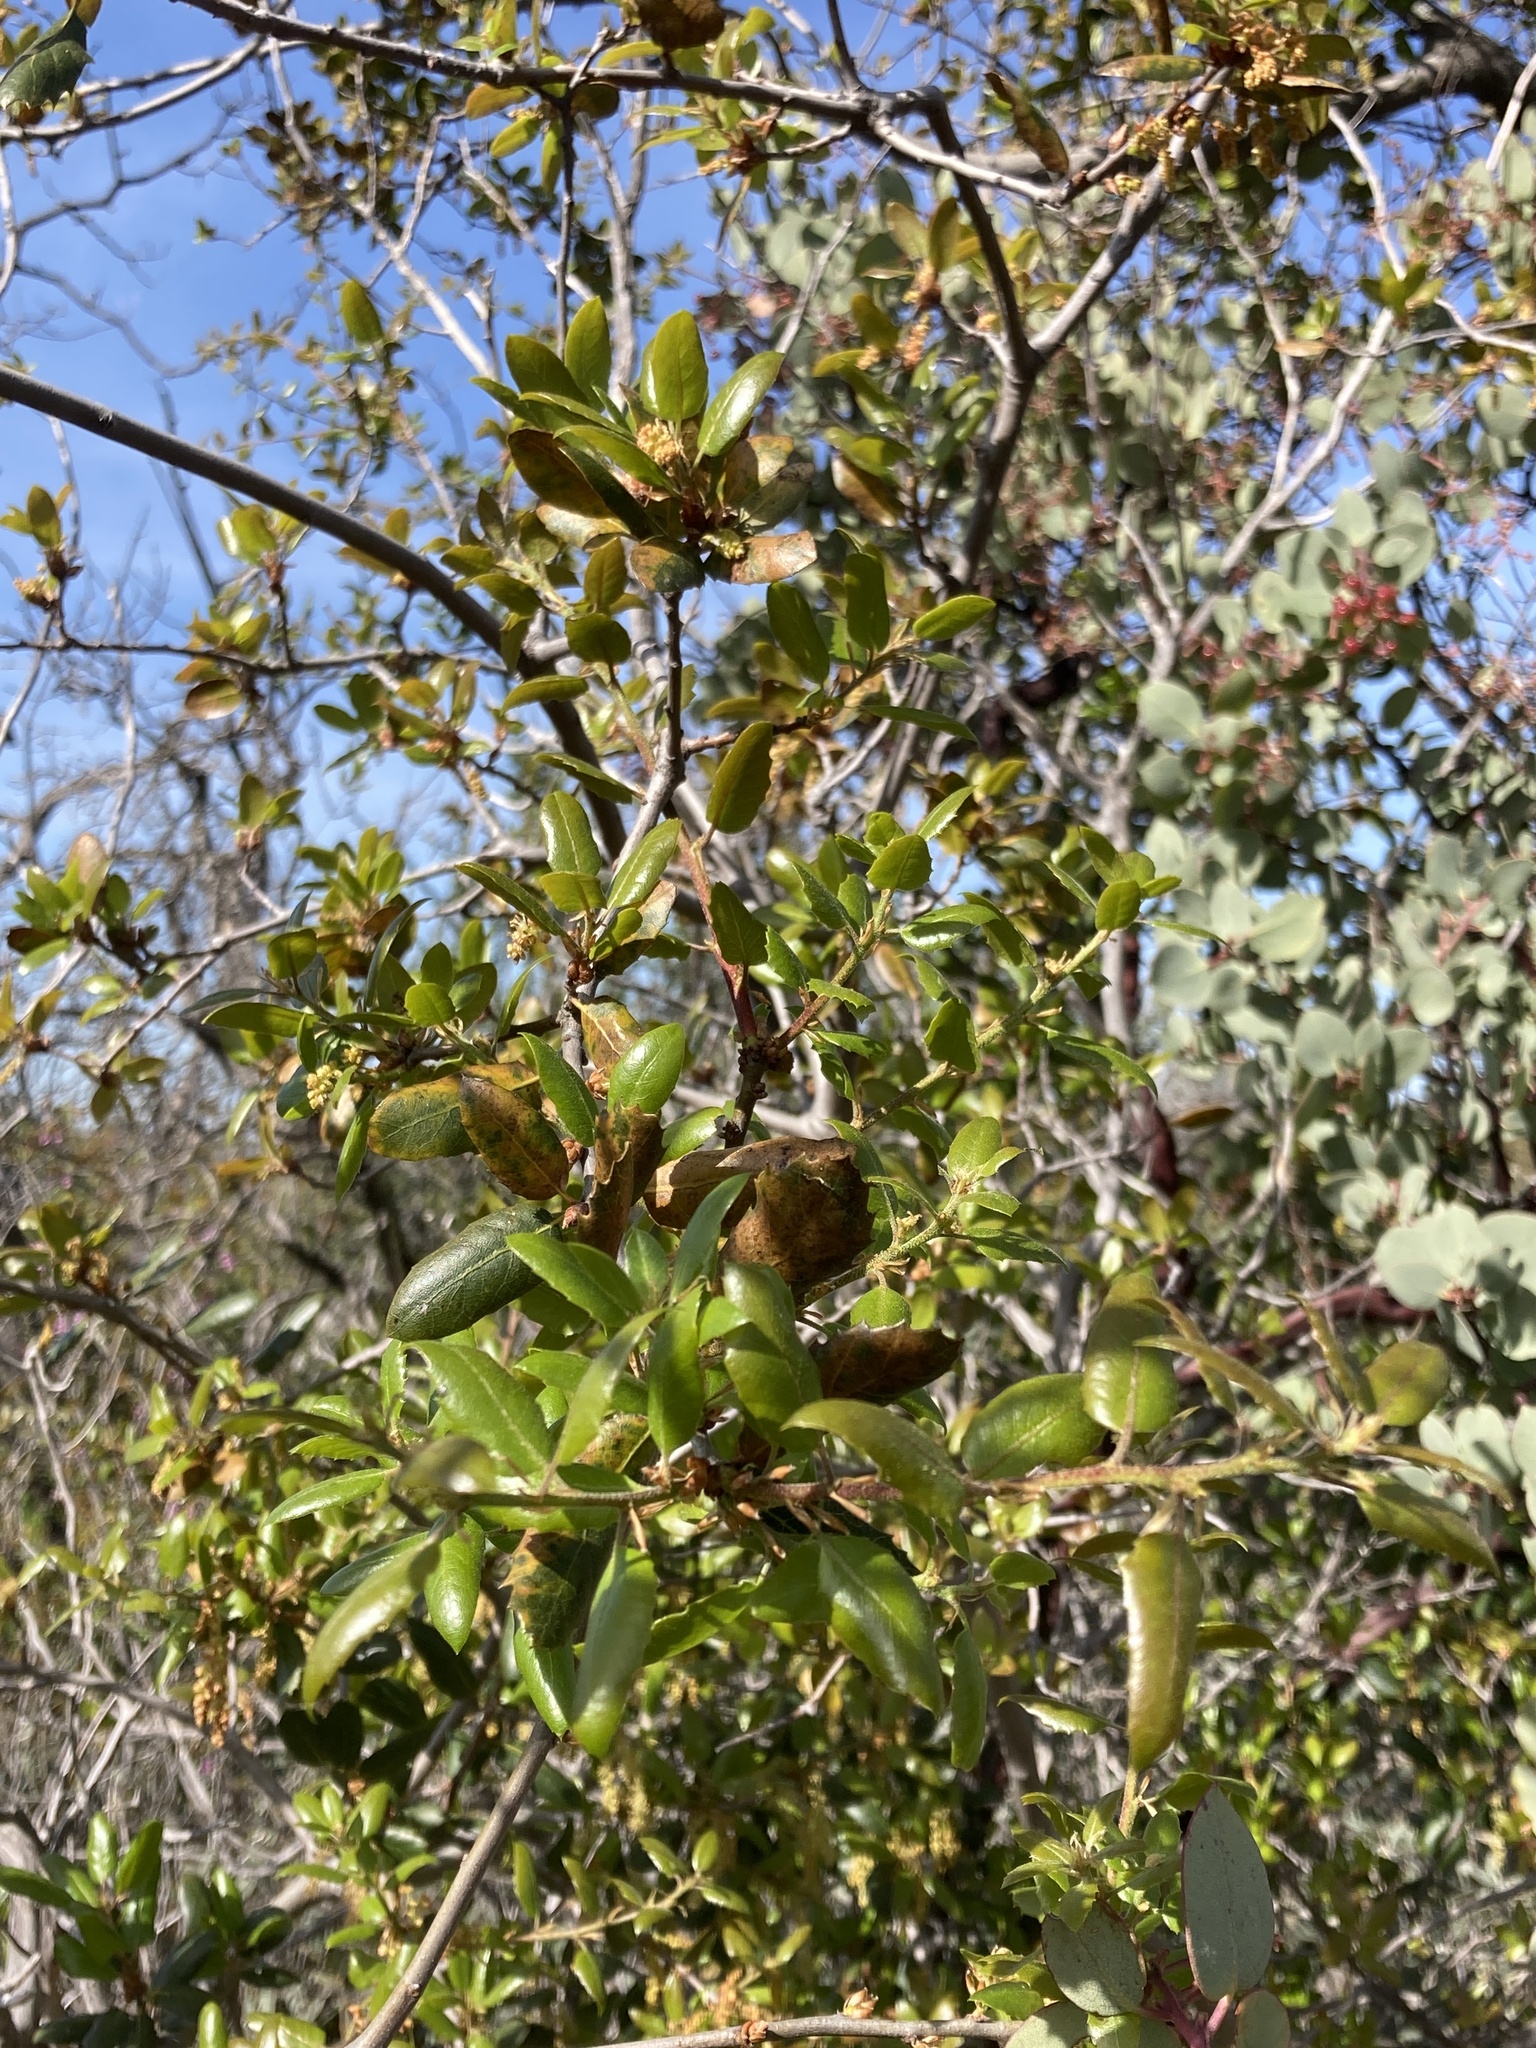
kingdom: Plantae
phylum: Tracheophyta
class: Magnoliopsida
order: Fagales
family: Fagaceae
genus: Quercus
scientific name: Quercus wislizeni
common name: Interior live oak
